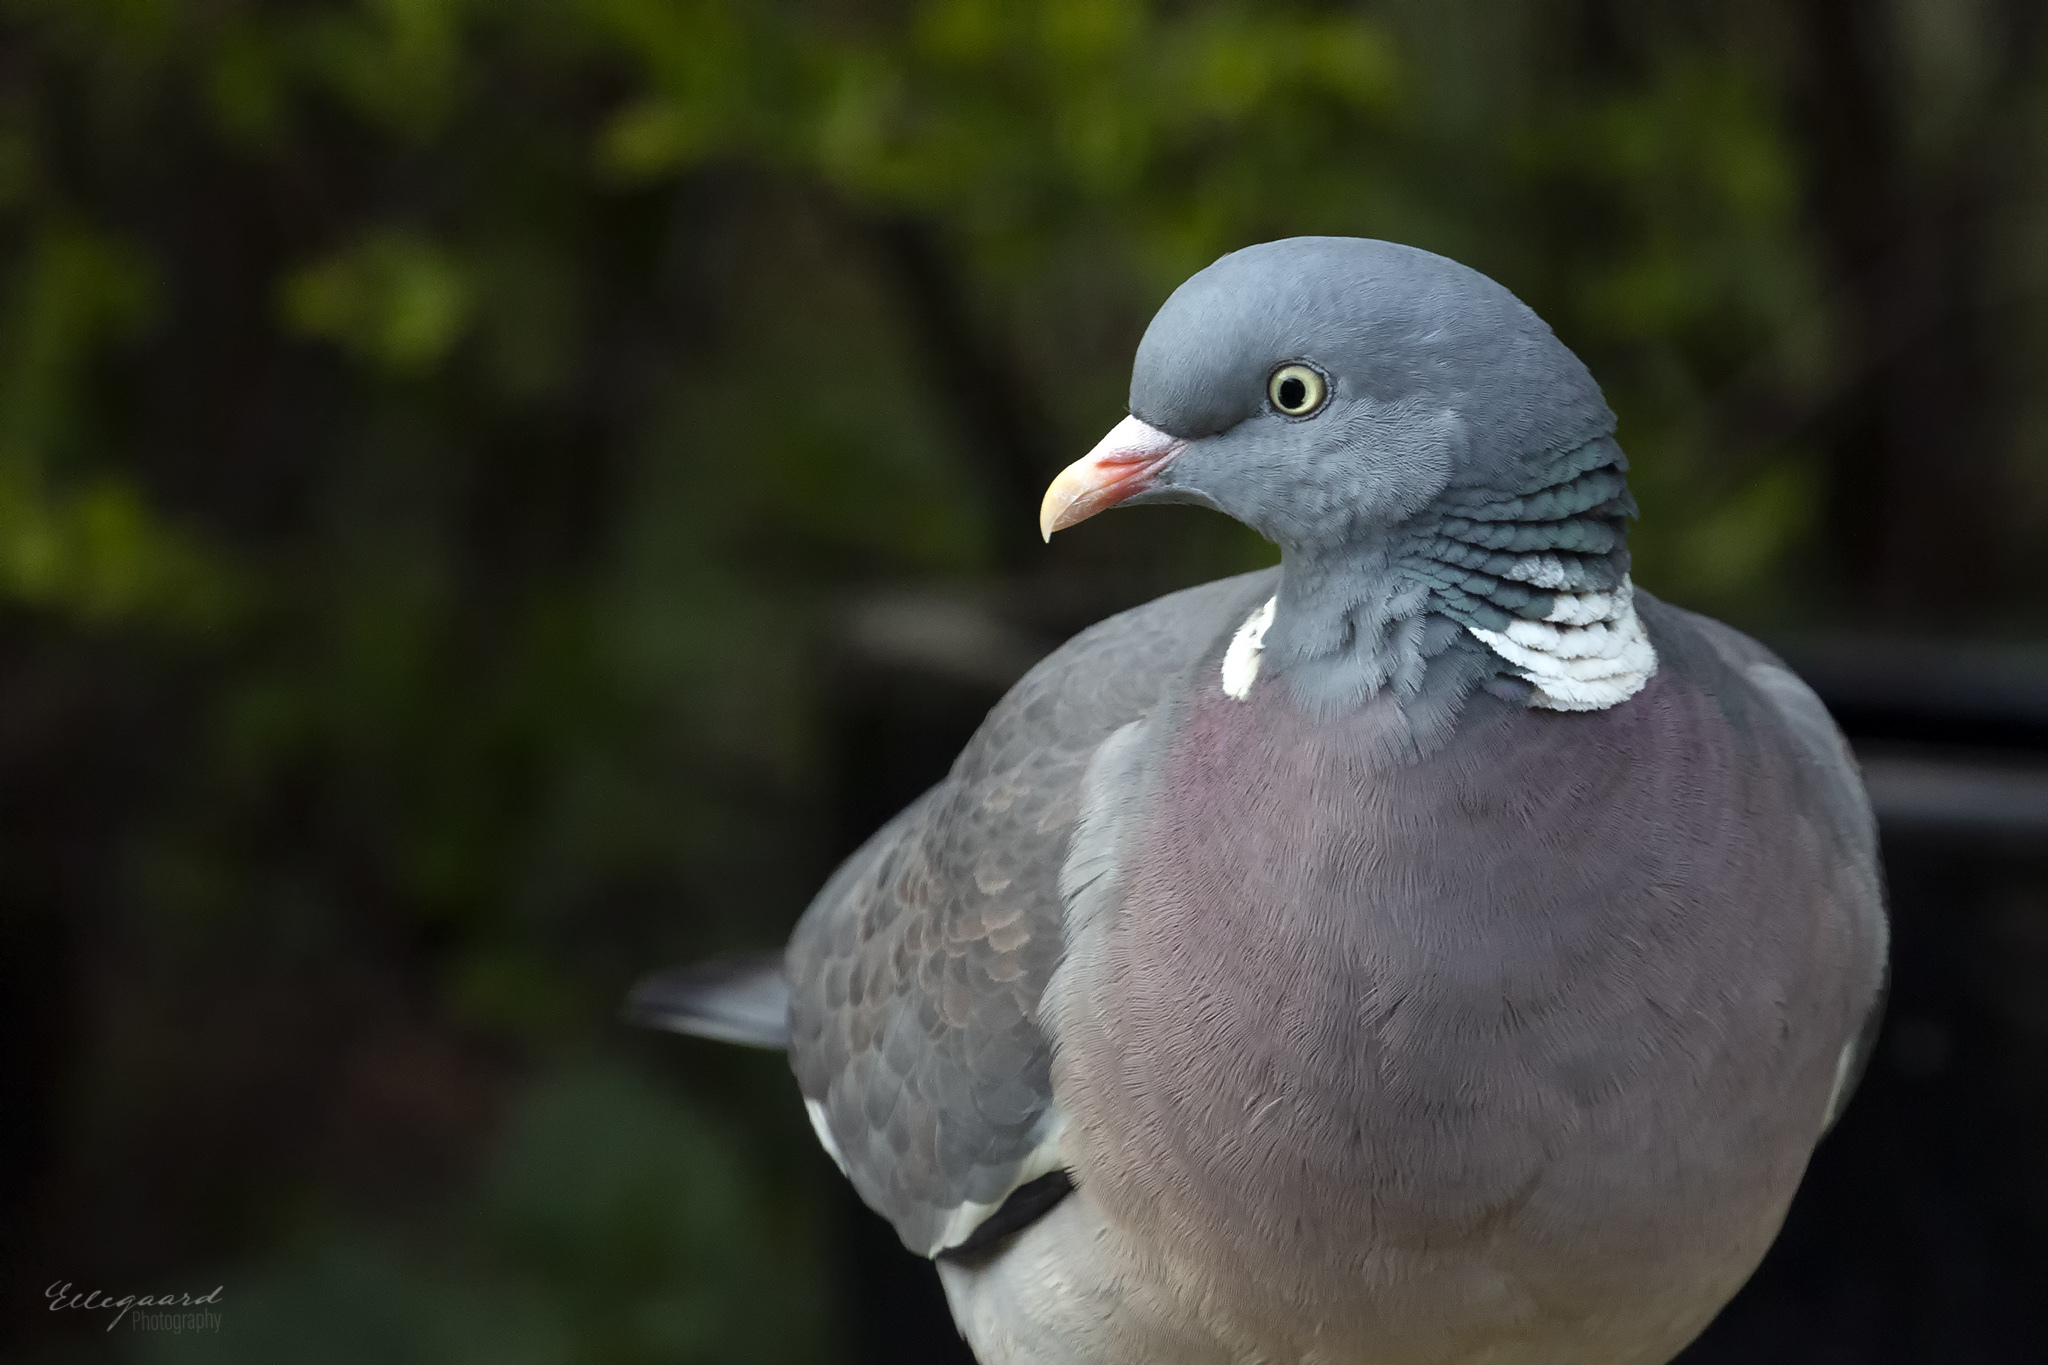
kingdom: Animalia
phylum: Chordata
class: Aves
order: Columbiformes
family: Columbidae
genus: Columba
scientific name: Columba palumbus
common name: Common wood pigeon
